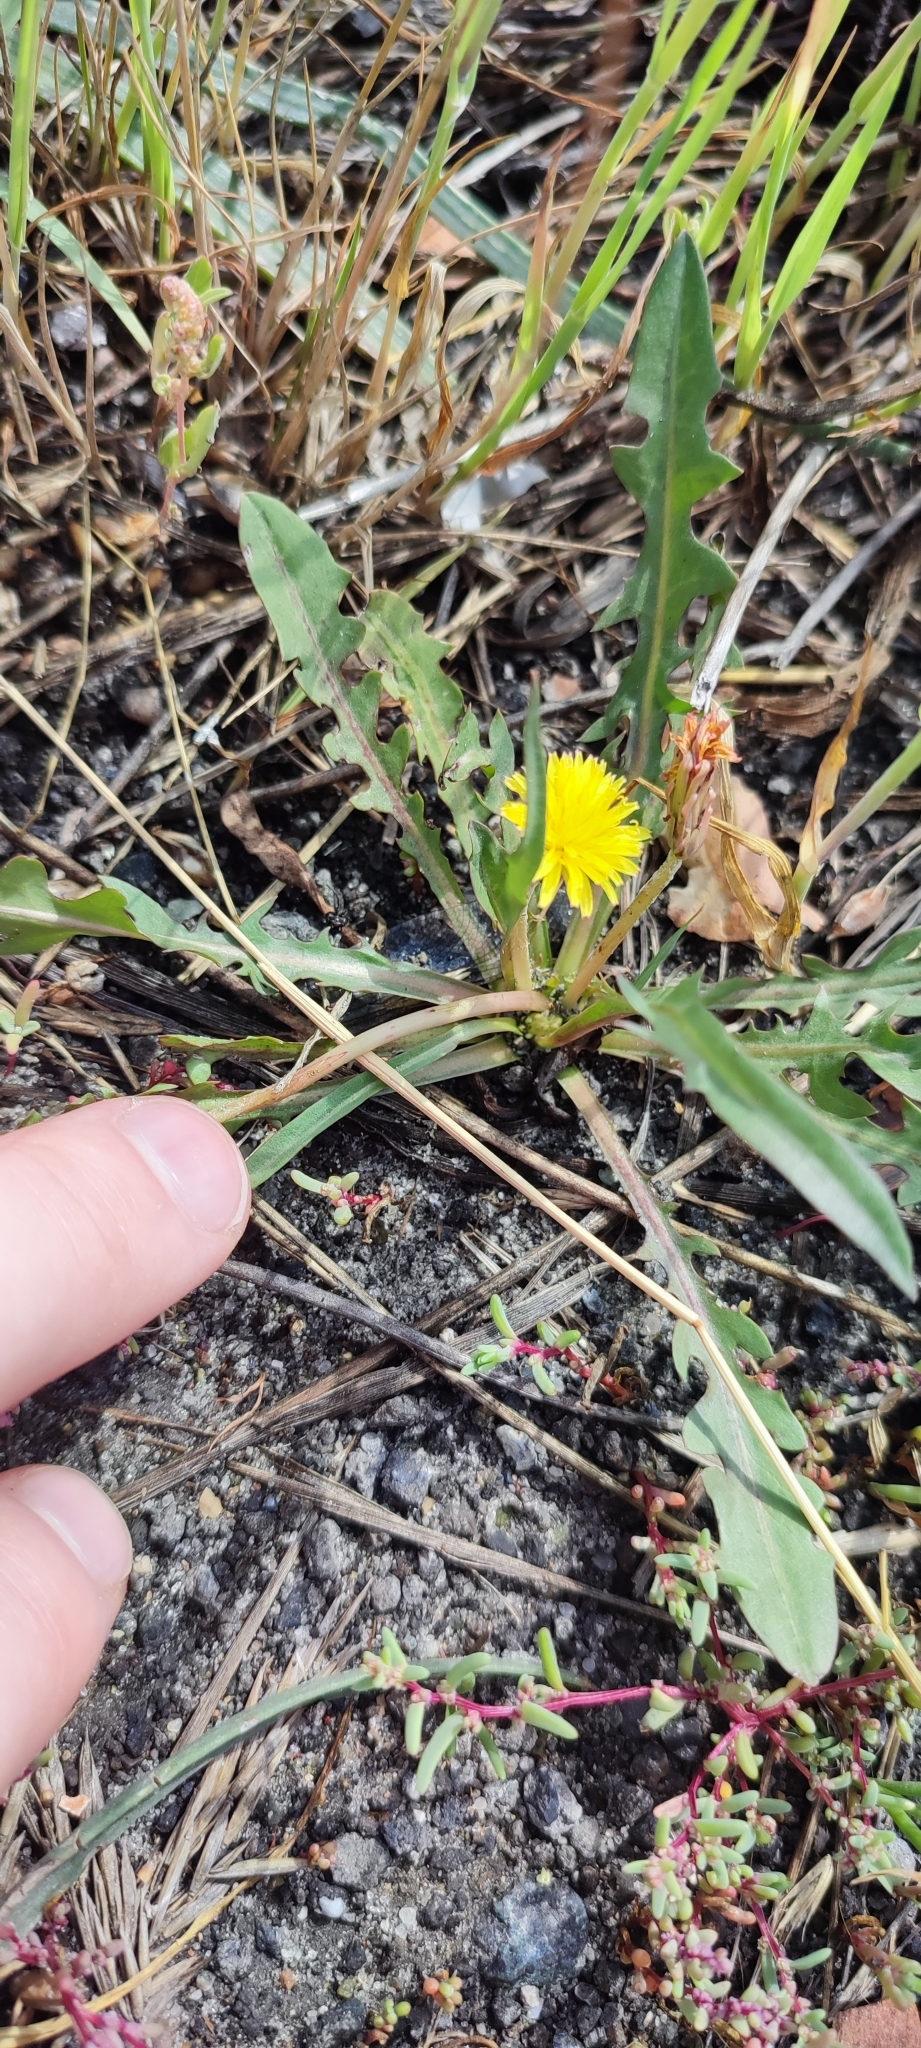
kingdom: Plantae
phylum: Tracheophyta
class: Magnoliopsida
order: Asterales
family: Asteraceae
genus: Taraxacum
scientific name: Taraxacum bessarabicum
